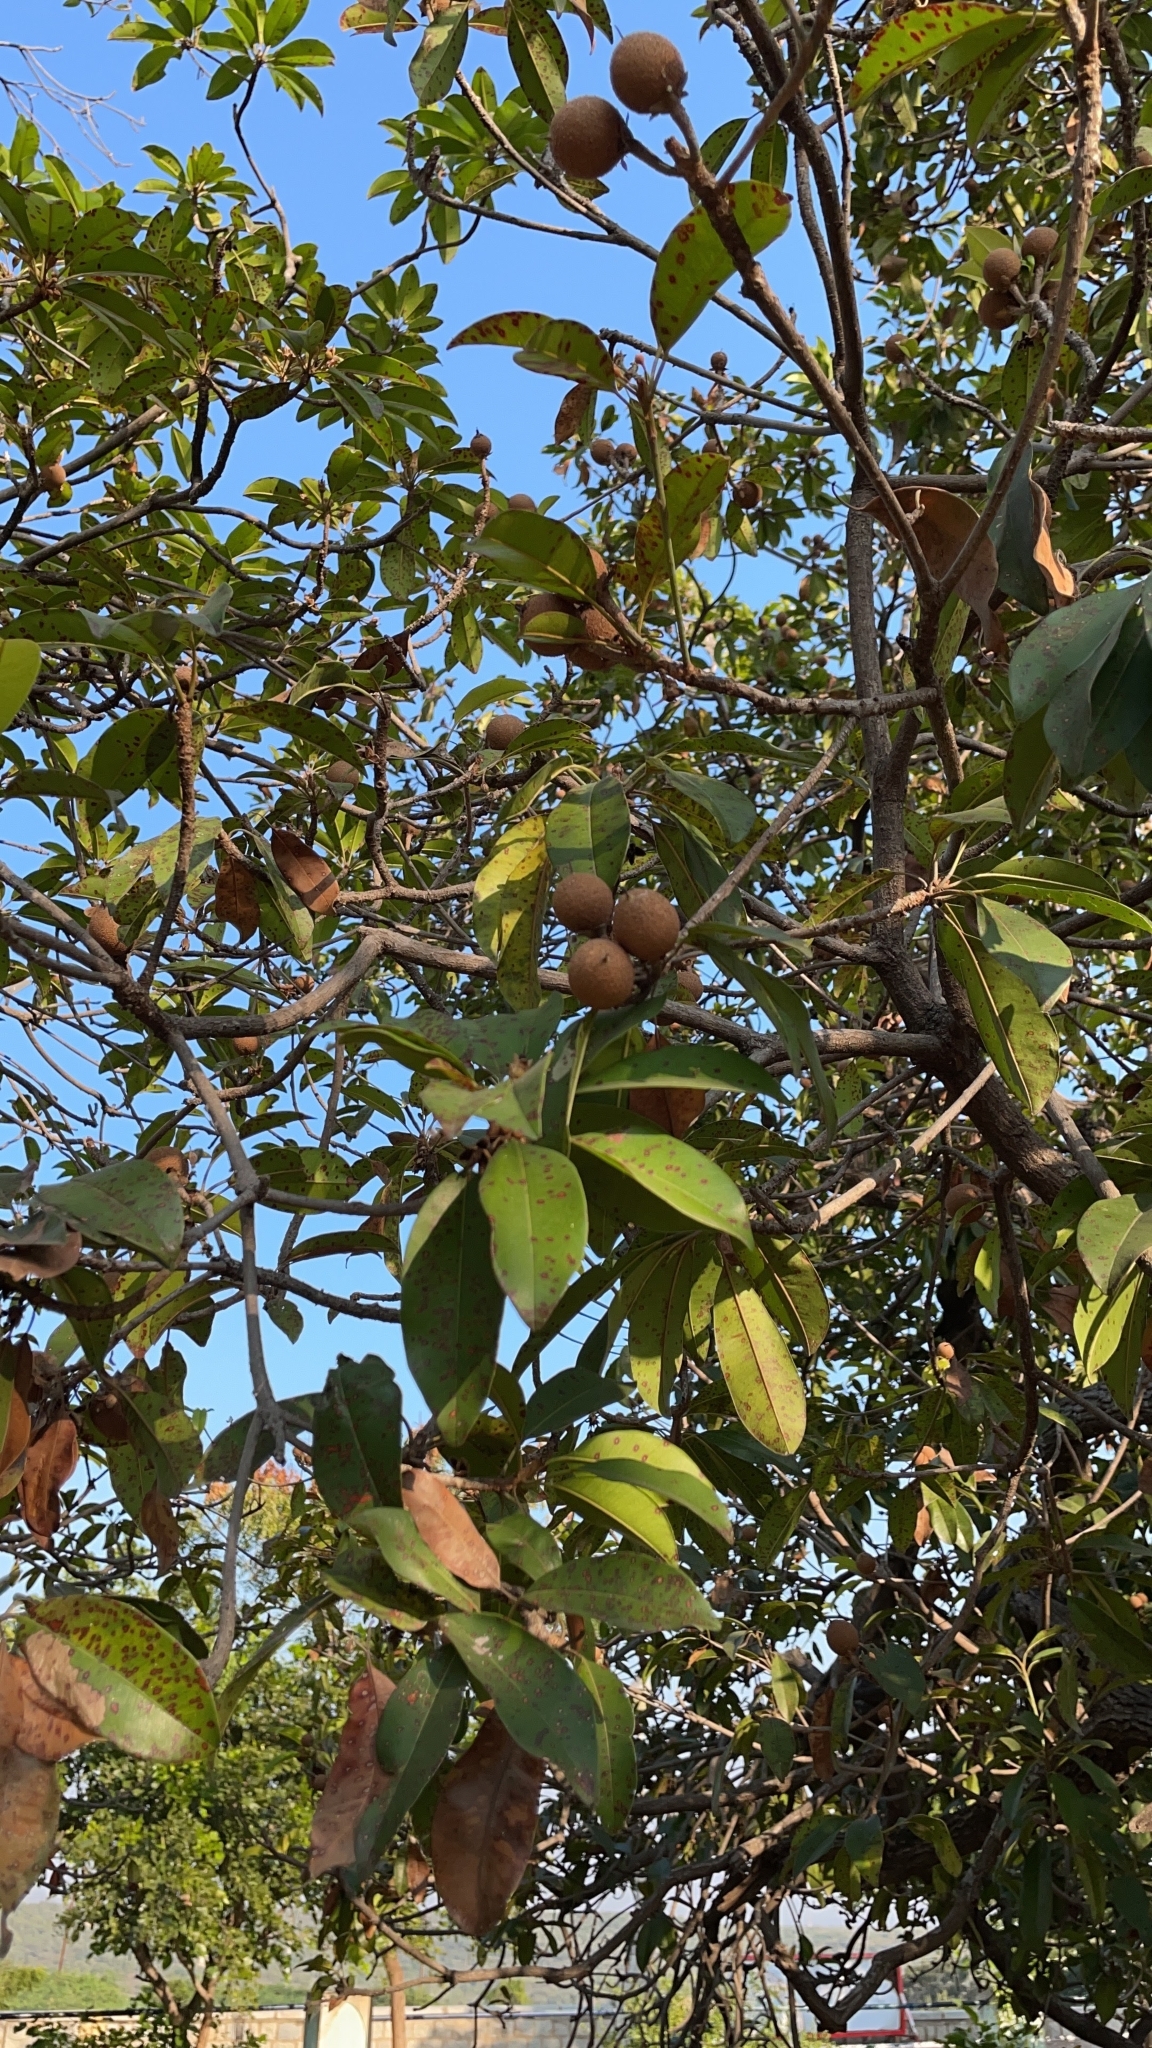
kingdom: Plantae
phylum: Tracheophyta
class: Magnoliopsida
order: Ericales
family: Sapotaceae
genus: Manilkara
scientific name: Manilkara zapota
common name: Sapodilla
